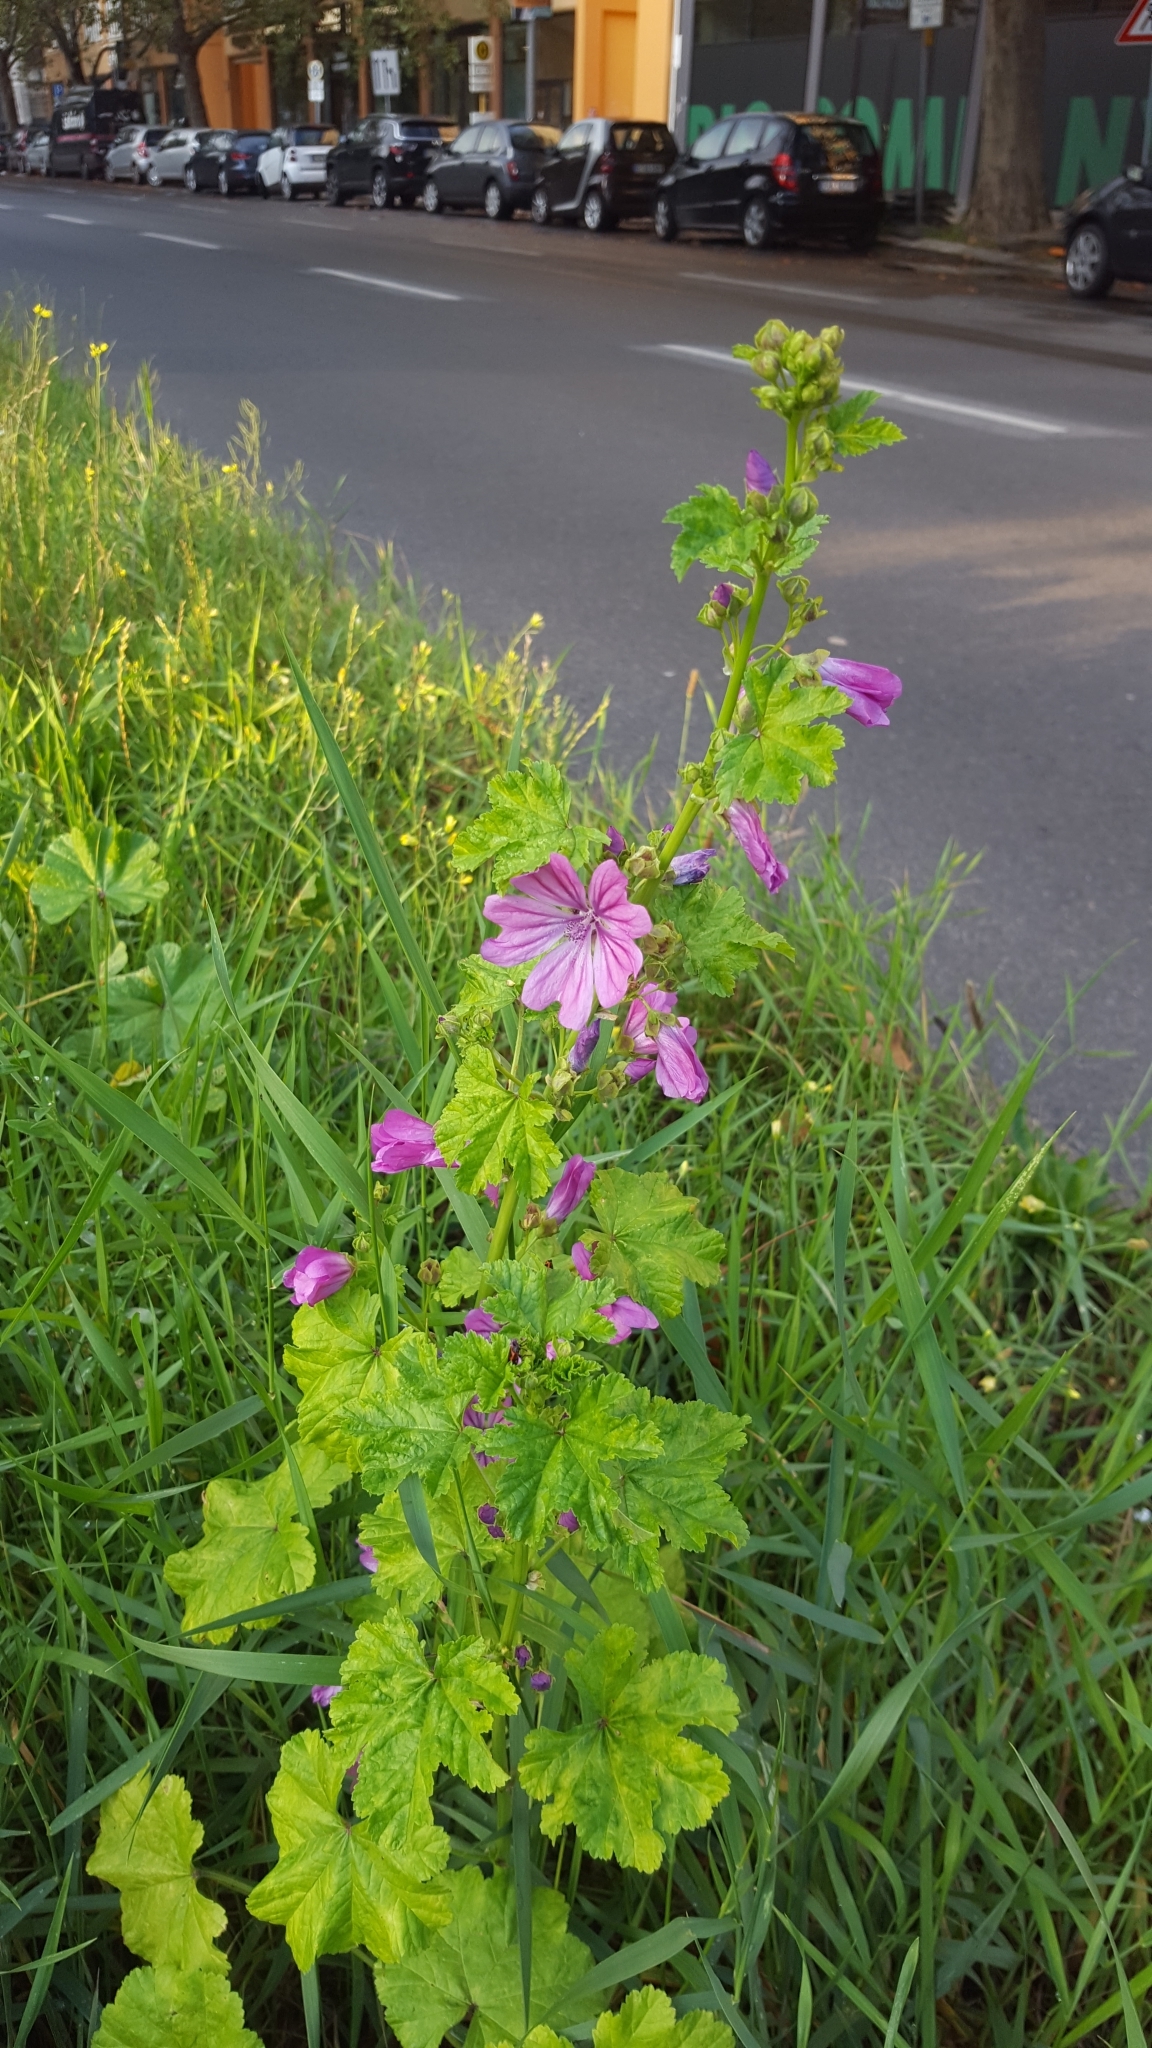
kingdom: Plantae
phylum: Tracheophyta
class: Magnoliopsida
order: Malvales
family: Malvaceae
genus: Malva
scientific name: Malva sylvestris
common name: Common mallow
